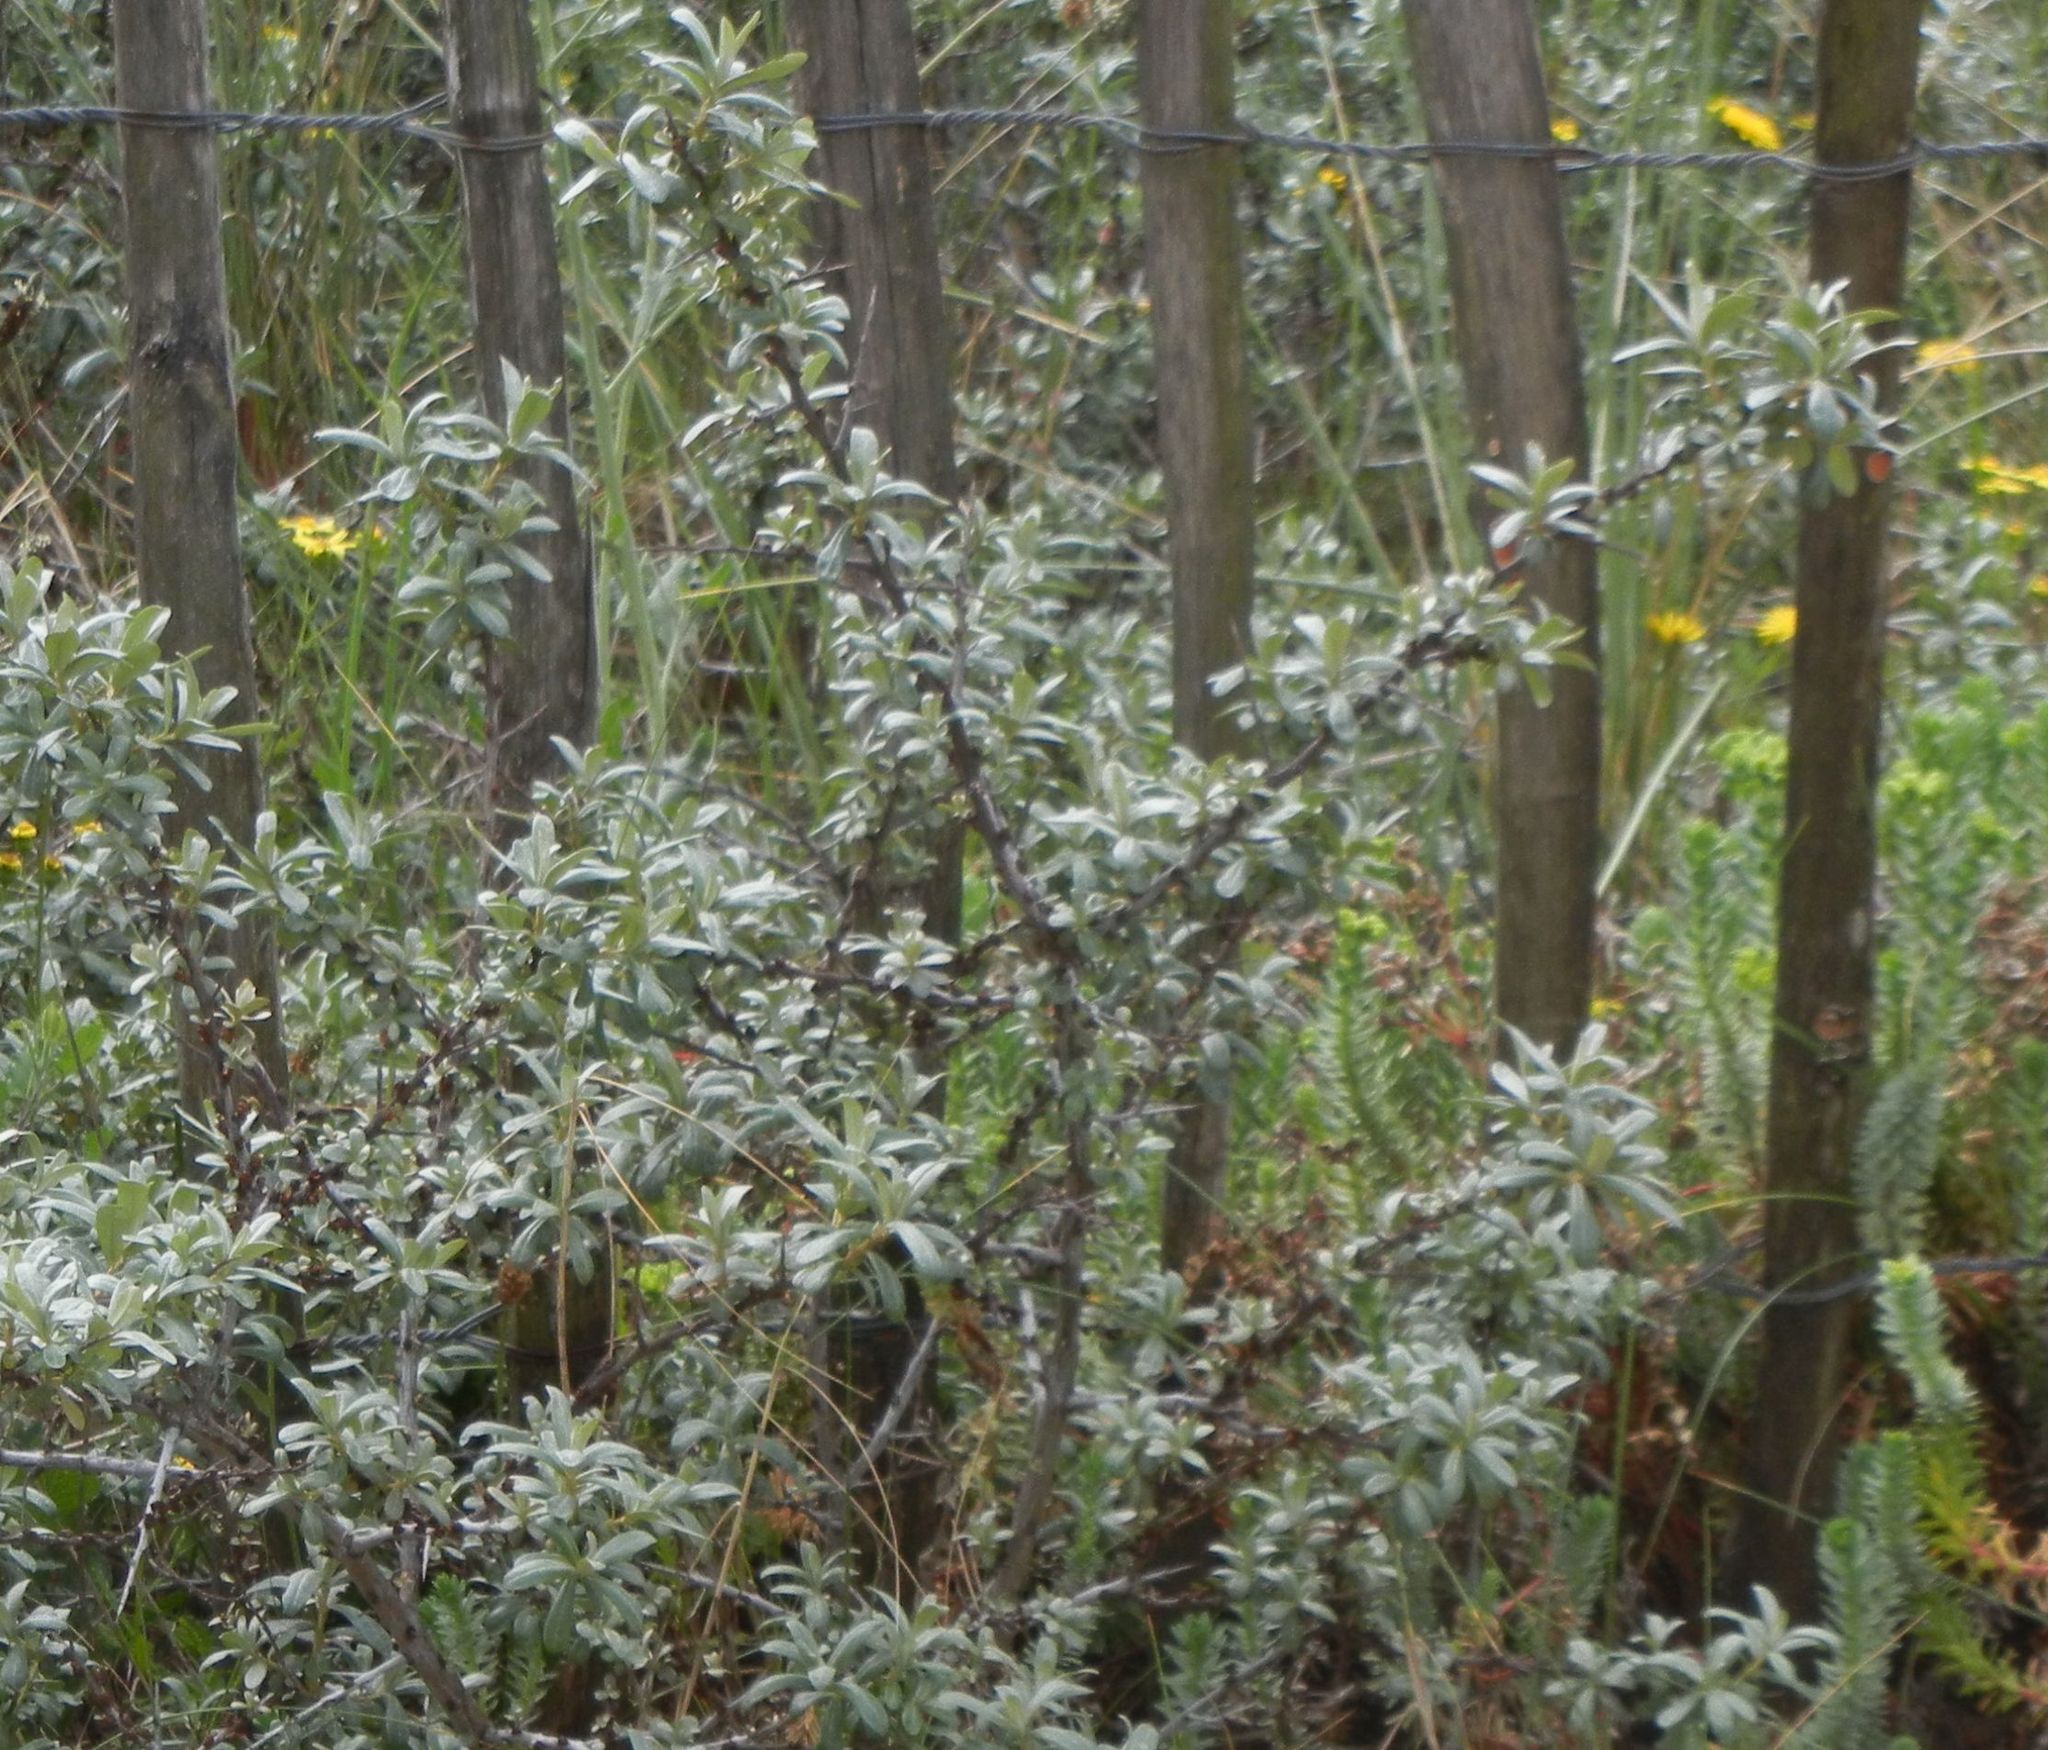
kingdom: Plantae
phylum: Tracheophyta
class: Magnoliopsida
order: Rosales
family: Elaeagnaceae
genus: Hippophae
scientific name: Hippophae rhamnoides
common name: Sea-buckthorn
